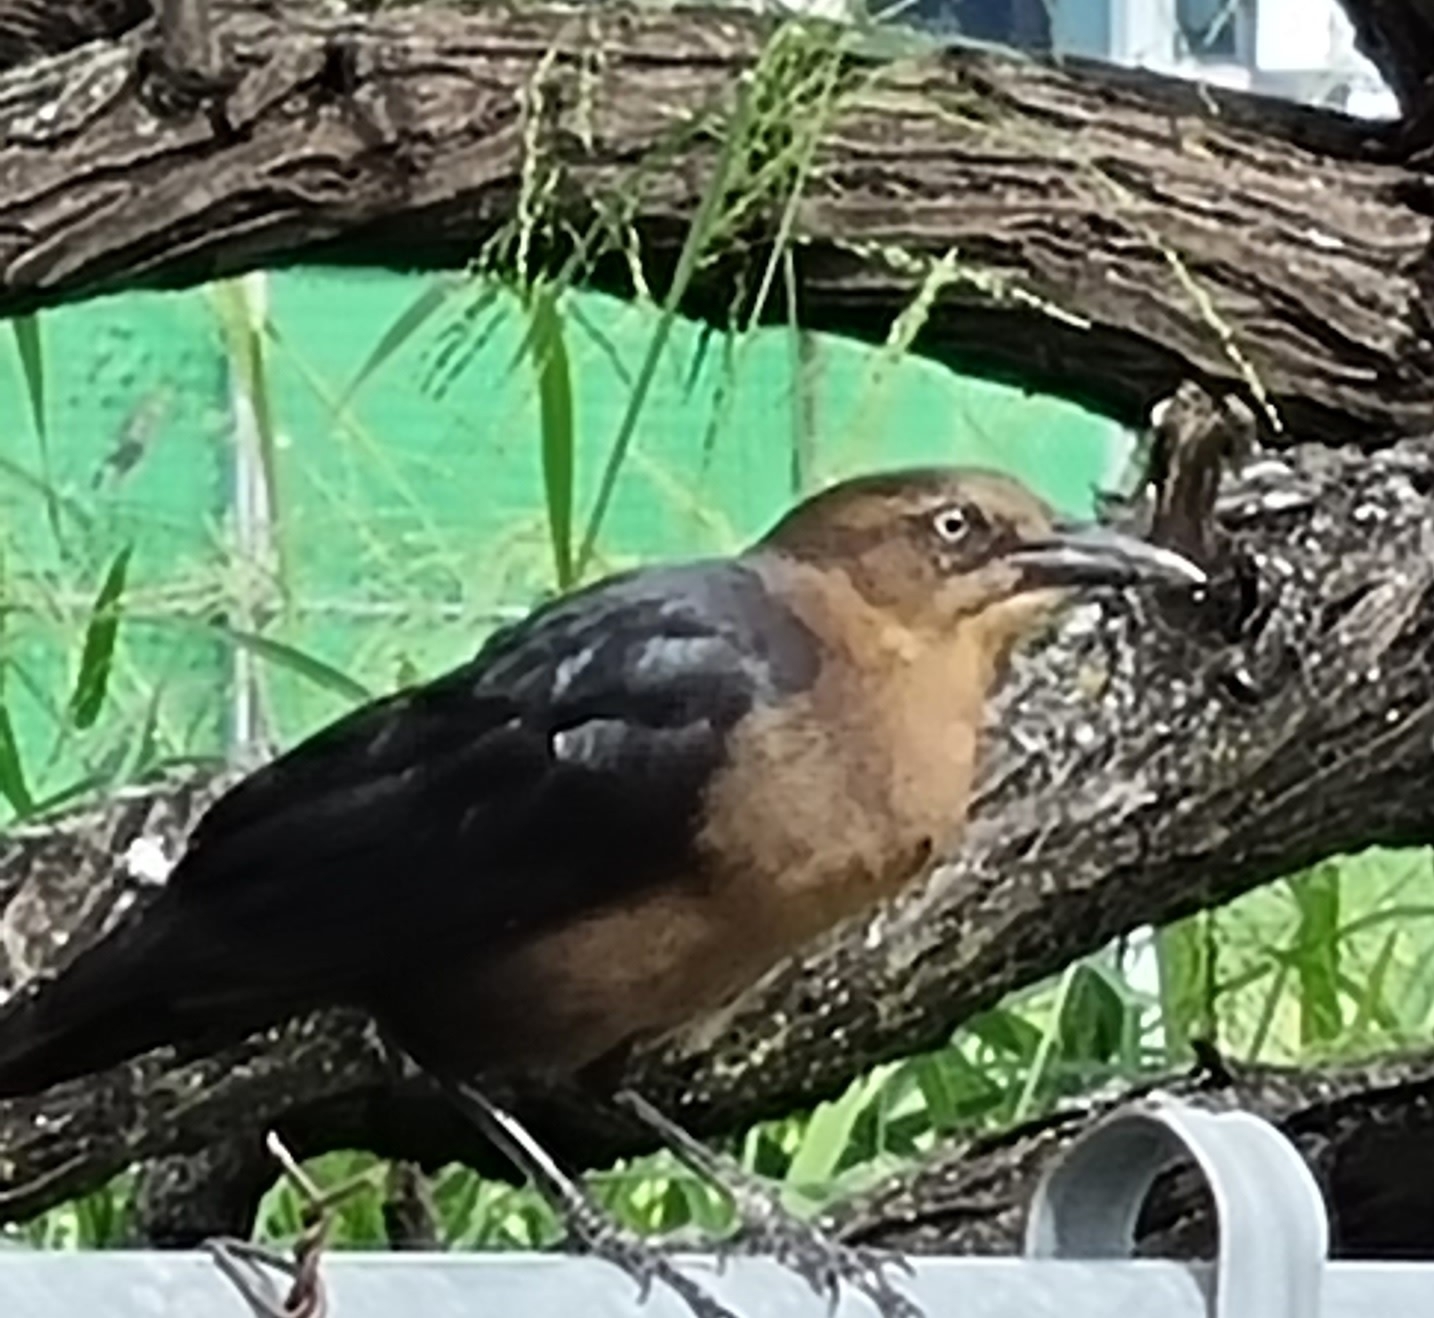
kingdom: Animalia
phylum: Chordata
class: Aves
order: Passeriformes
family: Icteridae
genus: Quiscalus
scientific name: Quiscalus mexicanus
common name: Great-tailed grackle
